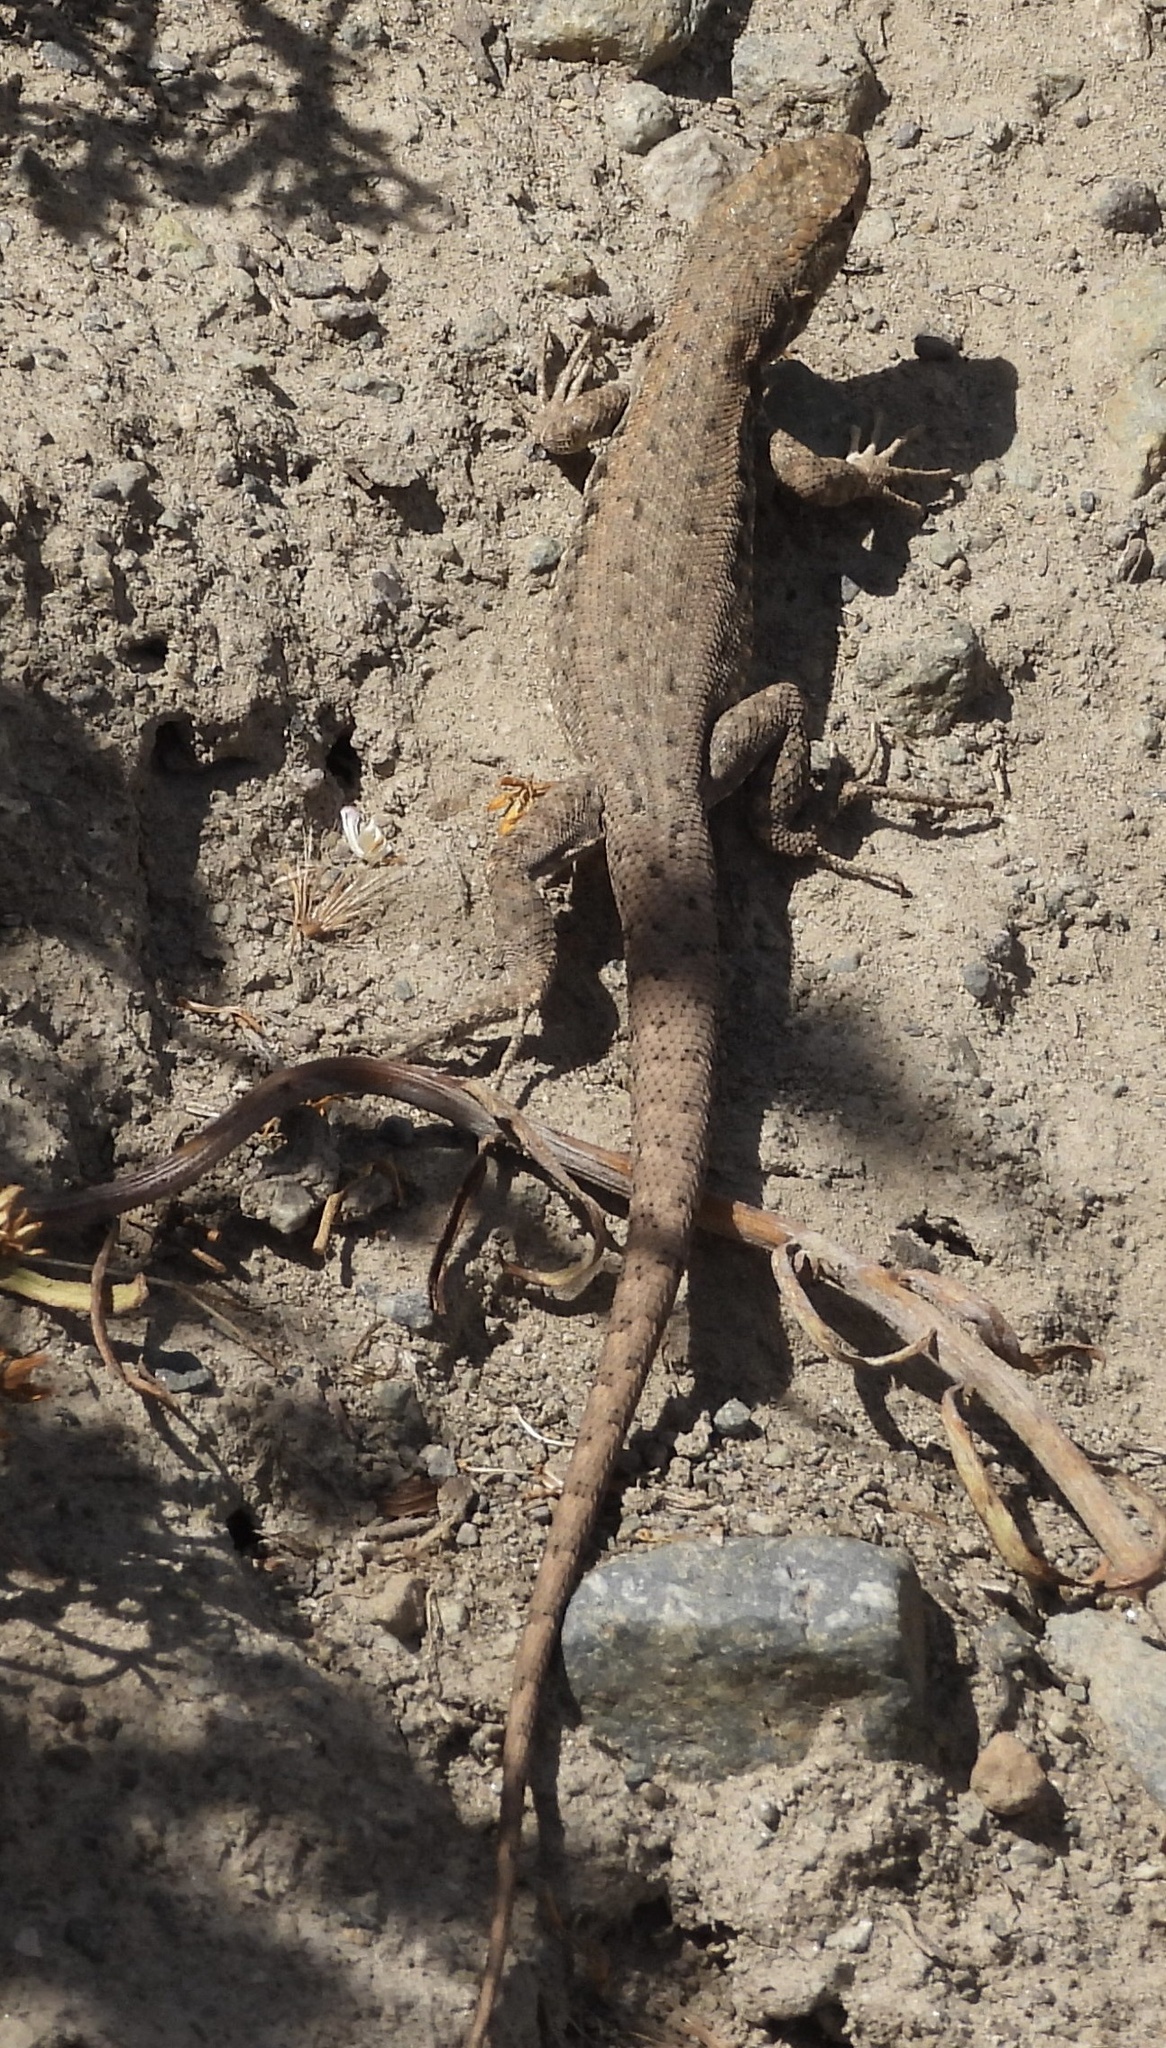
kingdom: Animalia
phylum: Chordata
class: Squamata
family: Liolaemidae
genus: Liolaemus
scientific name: Liolaemus monticola
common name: Peak tree iguana
